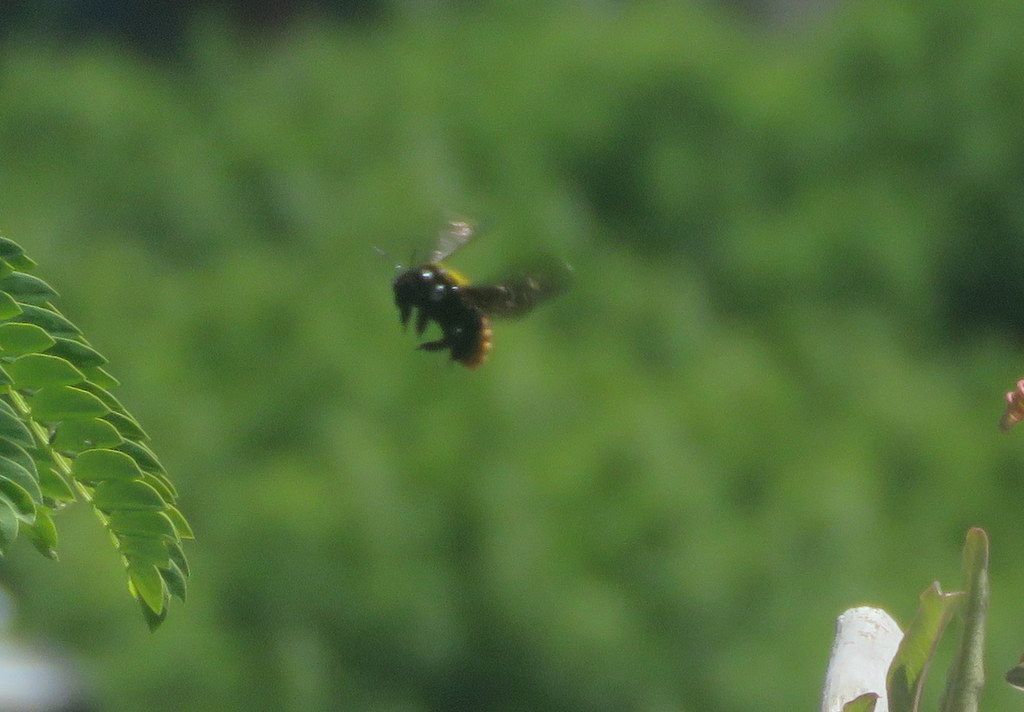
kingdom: Animalia
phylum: Arthropoda
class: Insecta
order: Hymenoptera
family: Apidae
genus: Xylocopa
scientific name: Xylocopa augusti
